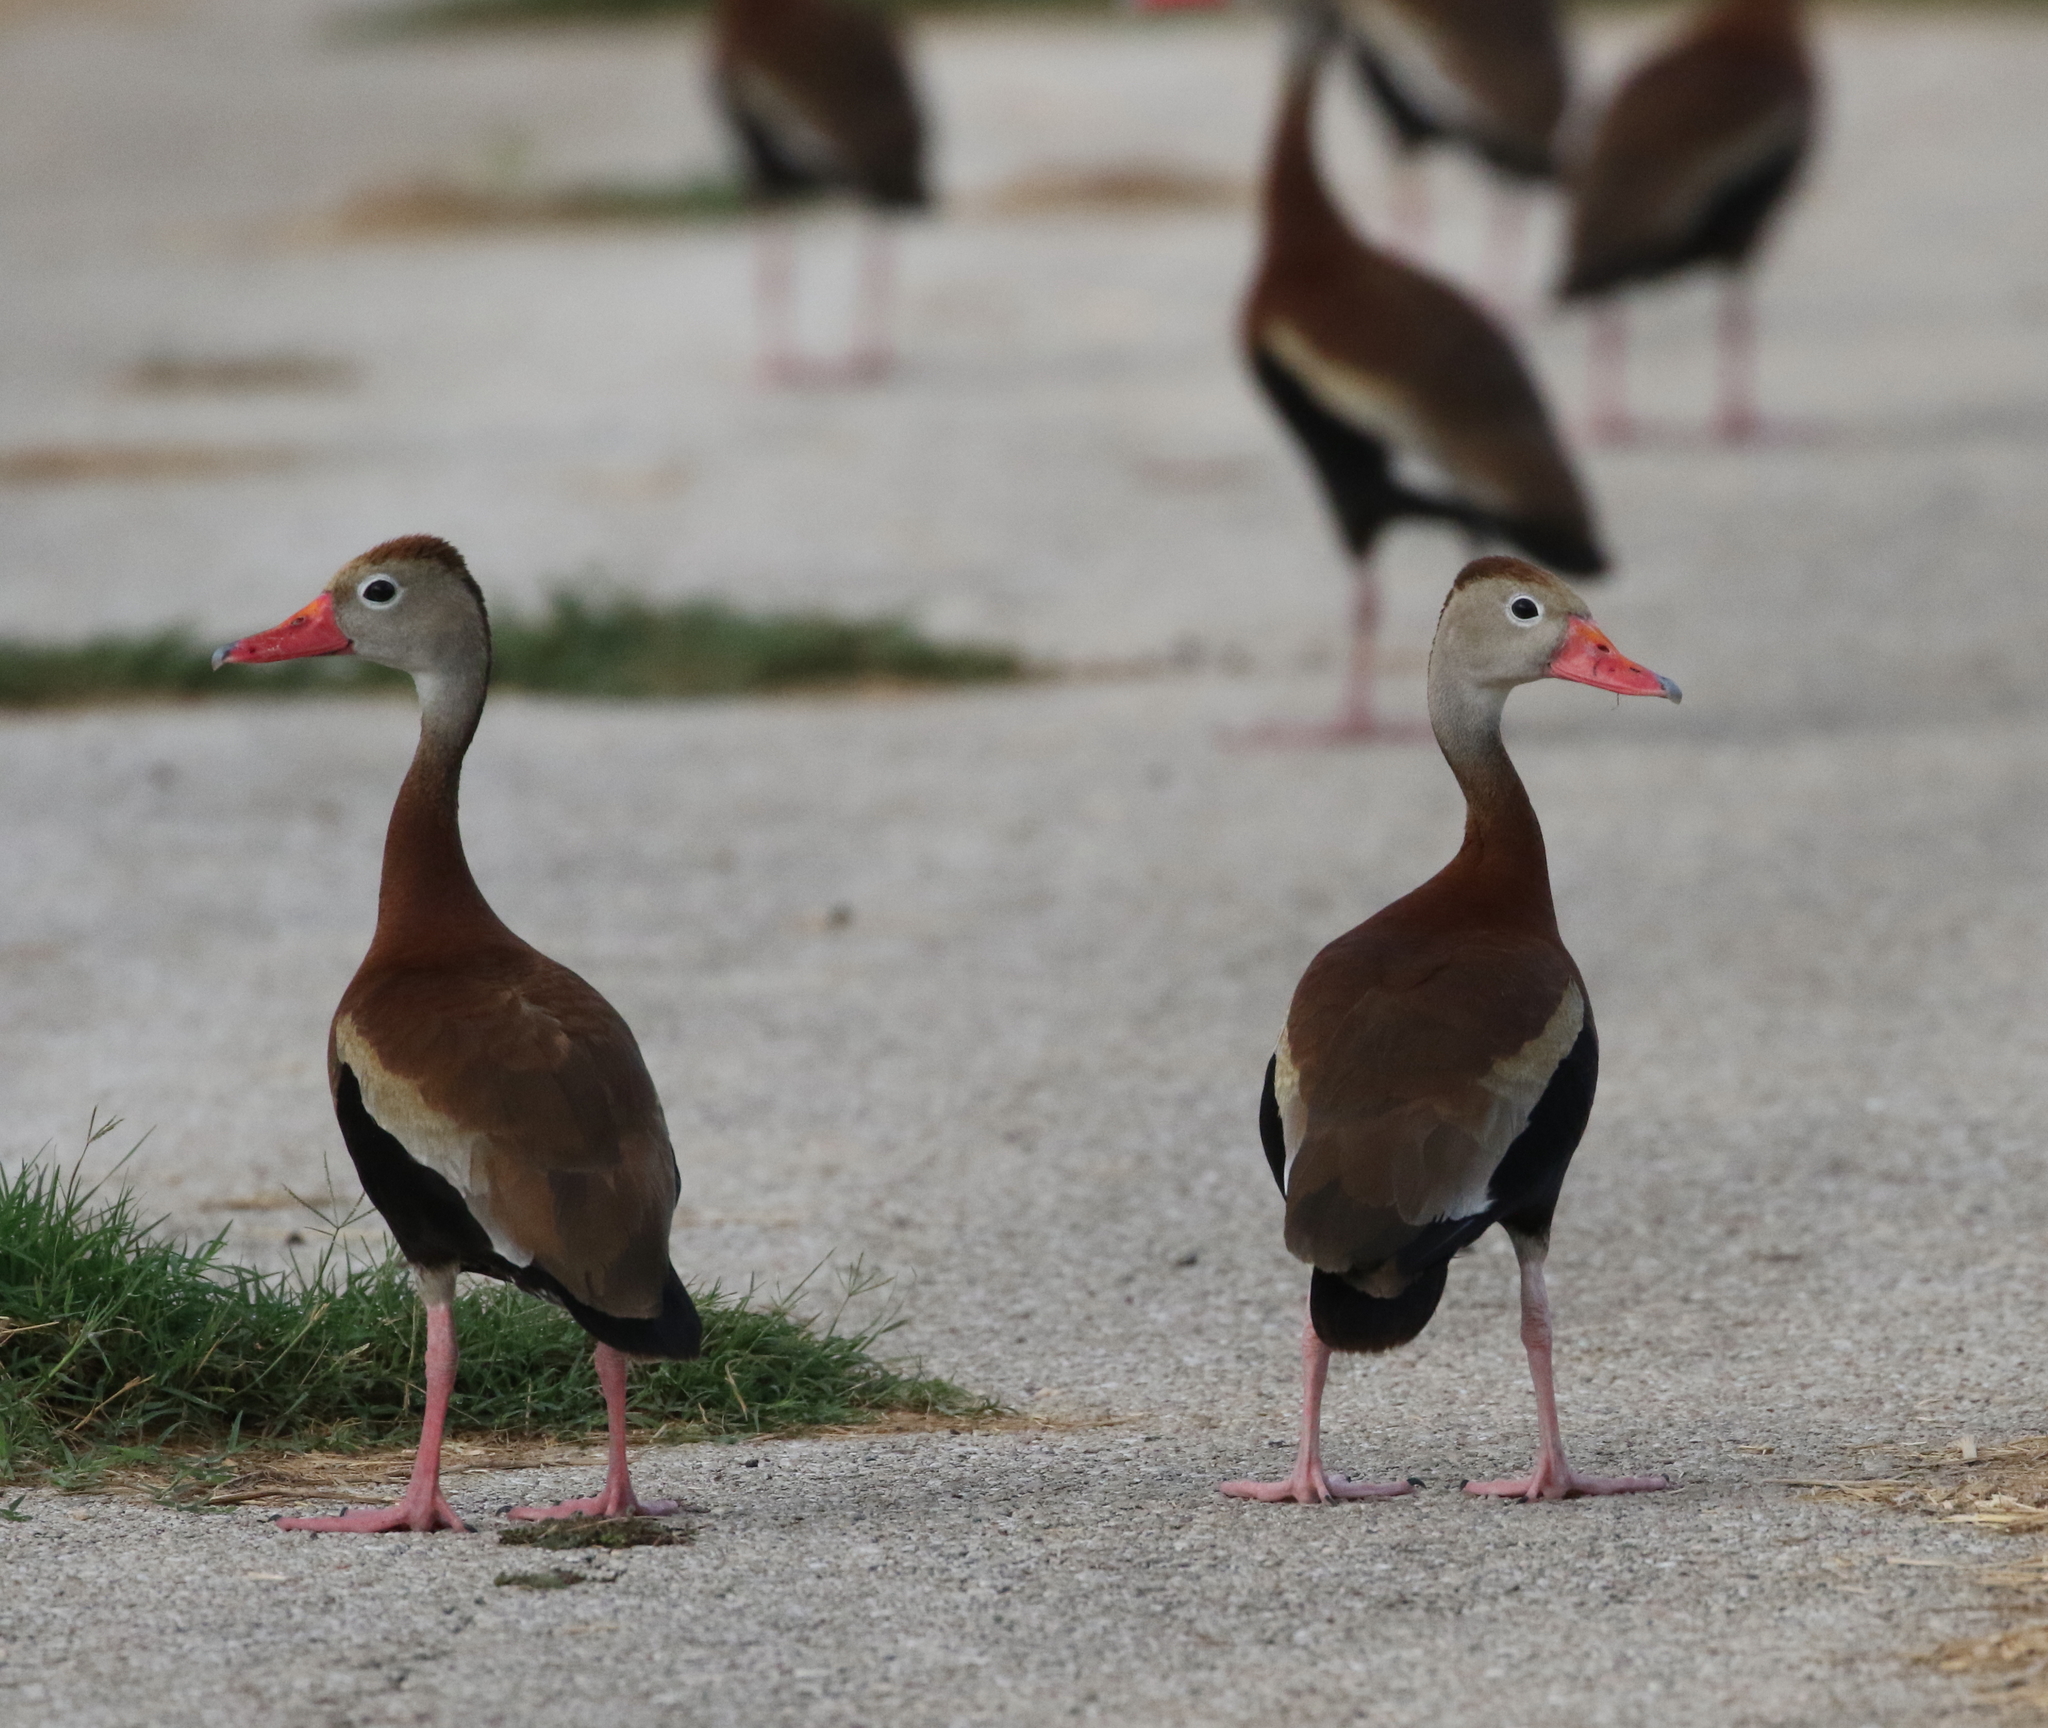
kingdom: Animalia
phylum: Chordata
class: Aves
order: Anseriformes
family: Anatidae
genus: Dendrocygna
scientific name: Dendrocygna autumnalis
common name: Black-bellied whistling duck
